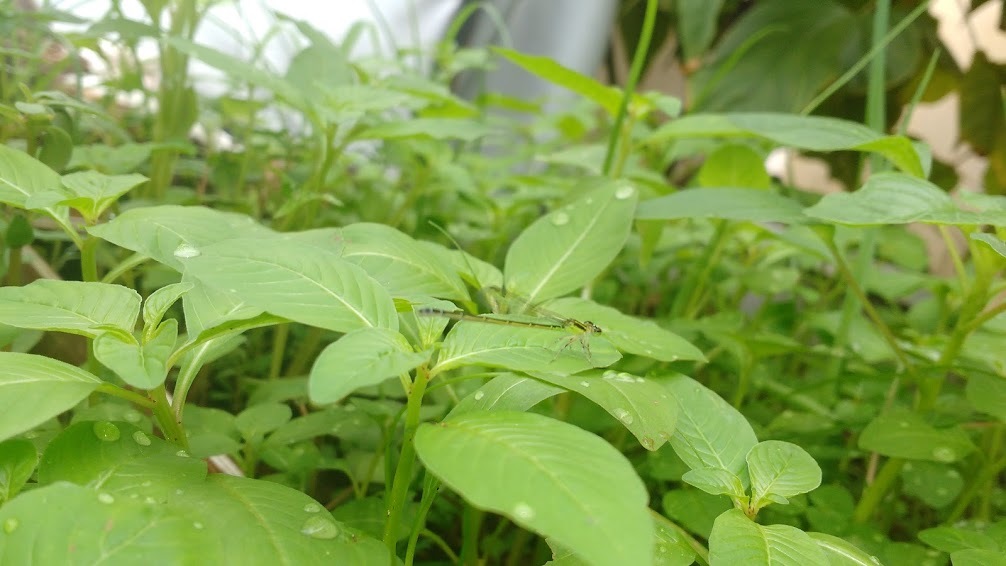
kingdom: Animalia
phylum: Arthropoda
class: Insecta
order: Odonata
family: Coenagrionidae
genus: Ischnura
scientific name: Ischnura capreolus
